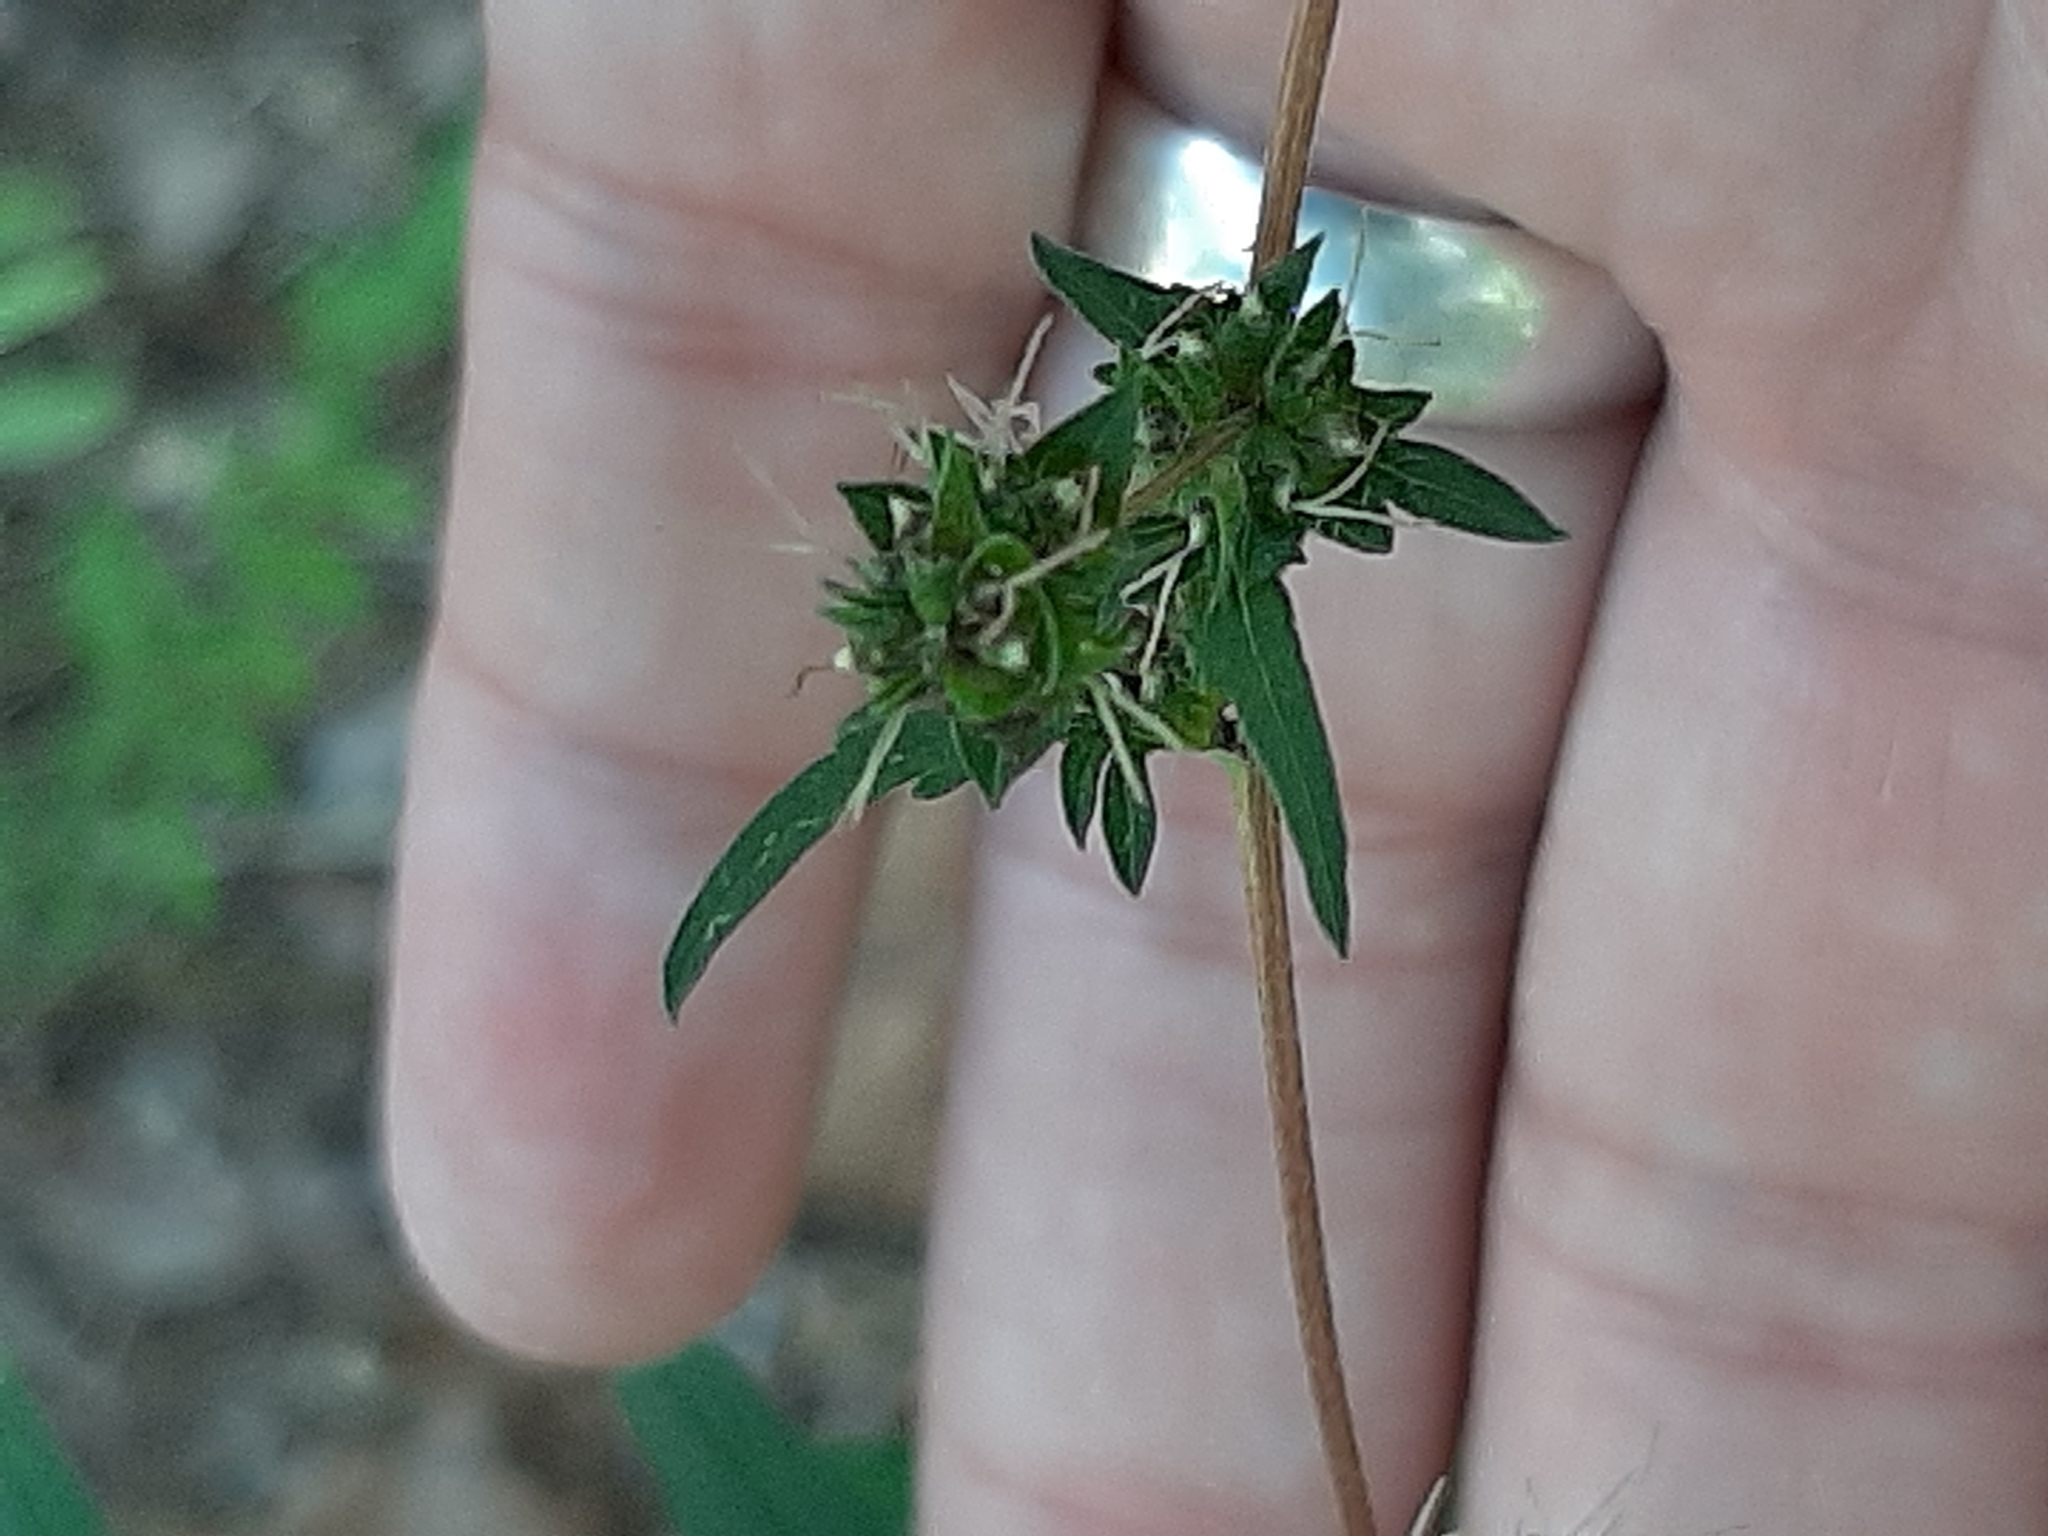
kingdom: Plantae
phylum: Tracheophyta
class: Magnoliopsida
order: Asterales
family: Asteraceae
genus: Ambrosia
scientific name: Ambrosia artemisiifolia
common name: Annual ragweed
